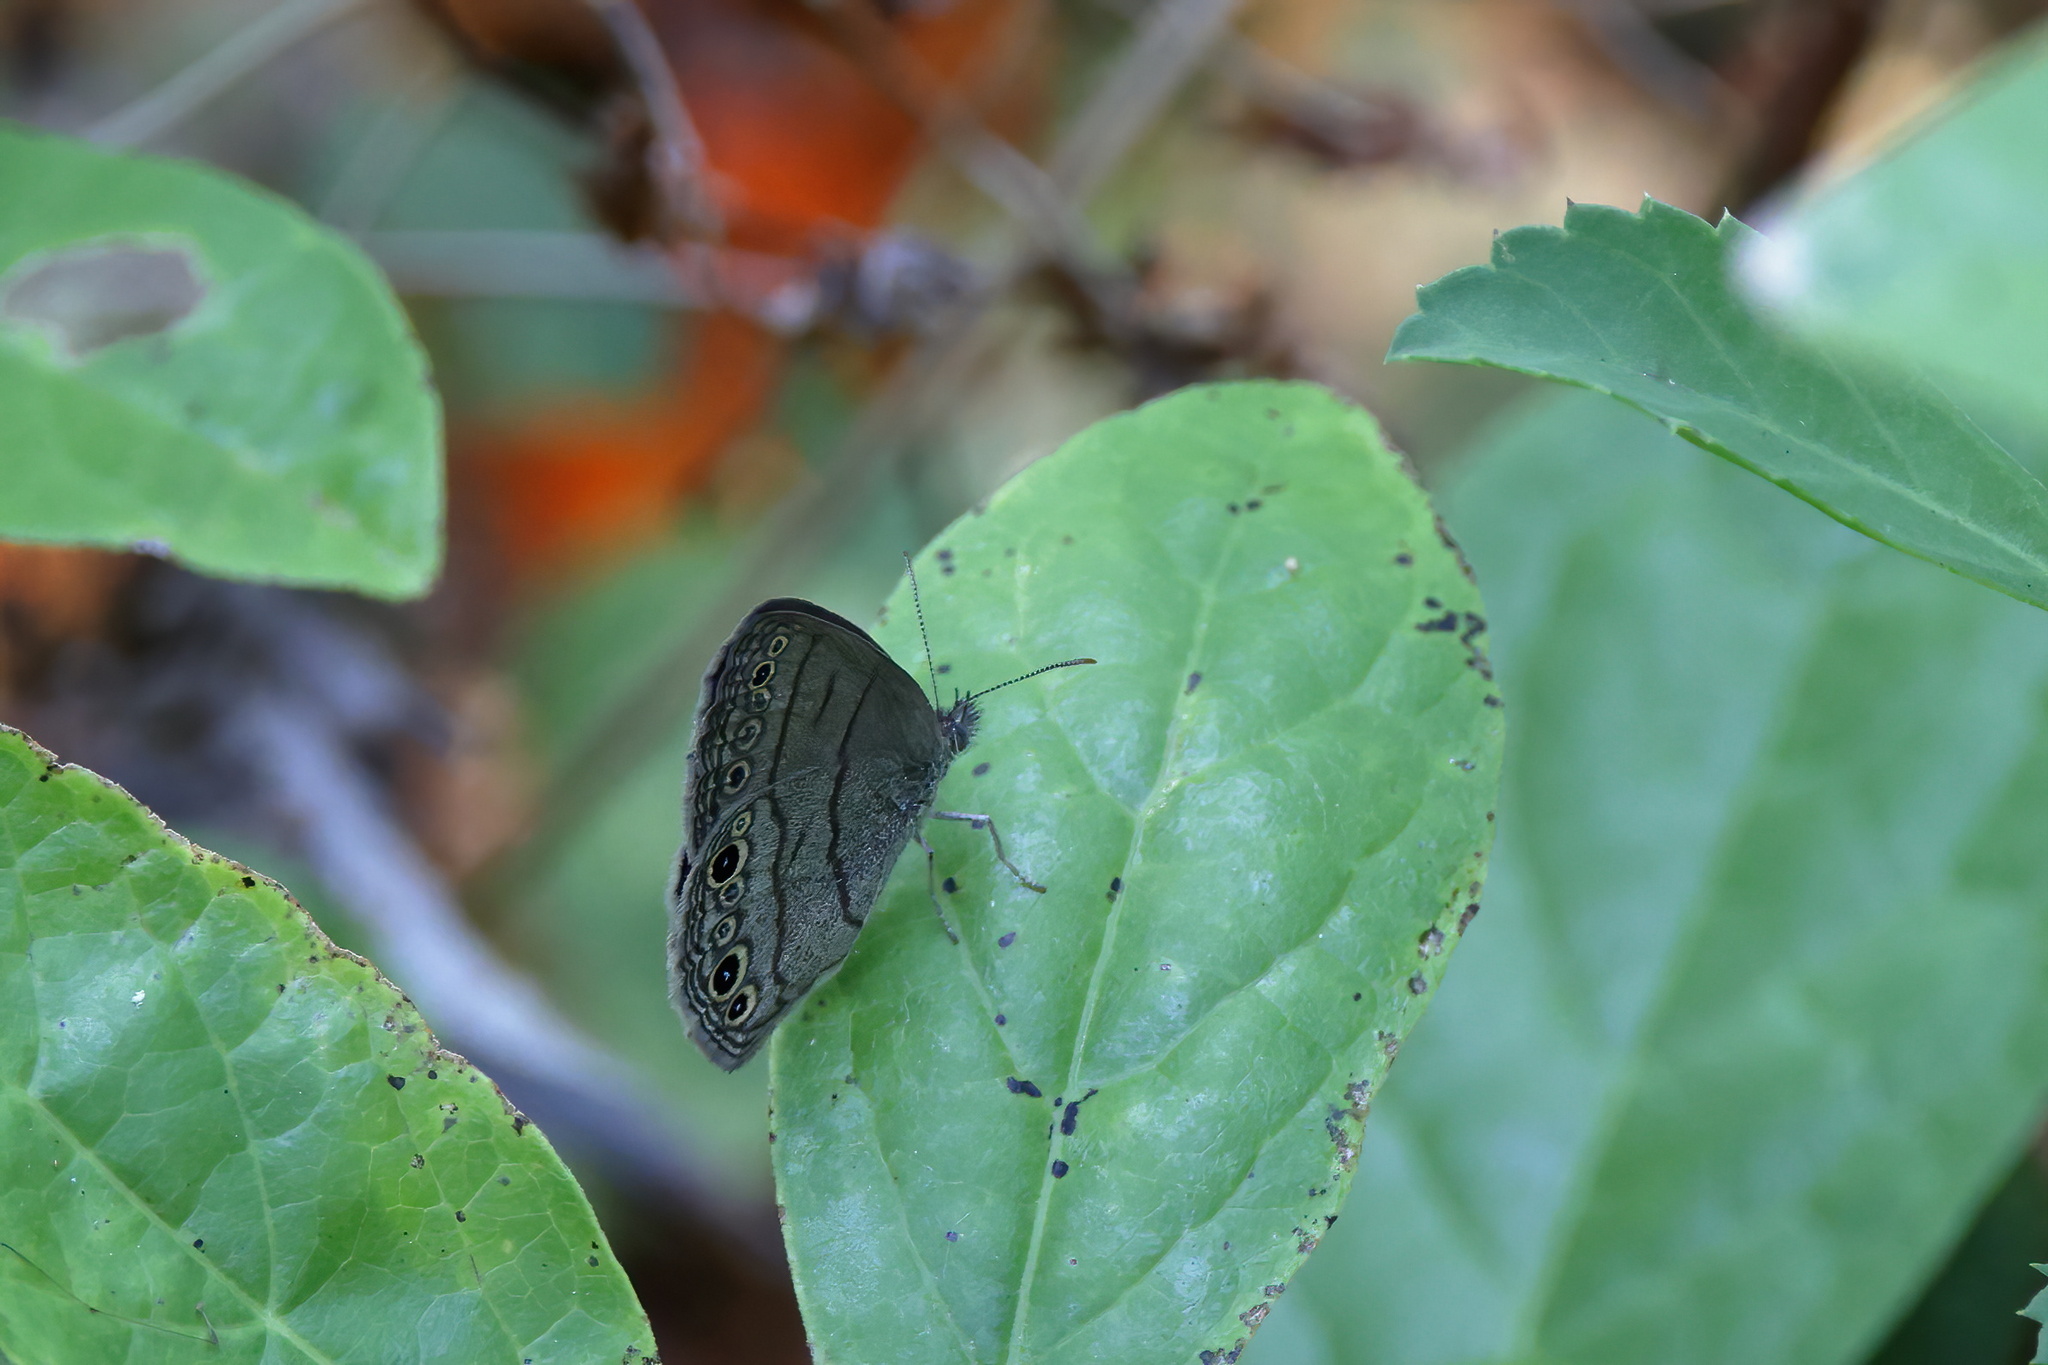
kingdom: Animalia
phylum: Arthropoda
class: Insecta
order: Lepidoptera
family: Nymphalidae
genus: Hermeuptychia
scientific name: Hermeuptychia hermes
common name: Hermes satyr
